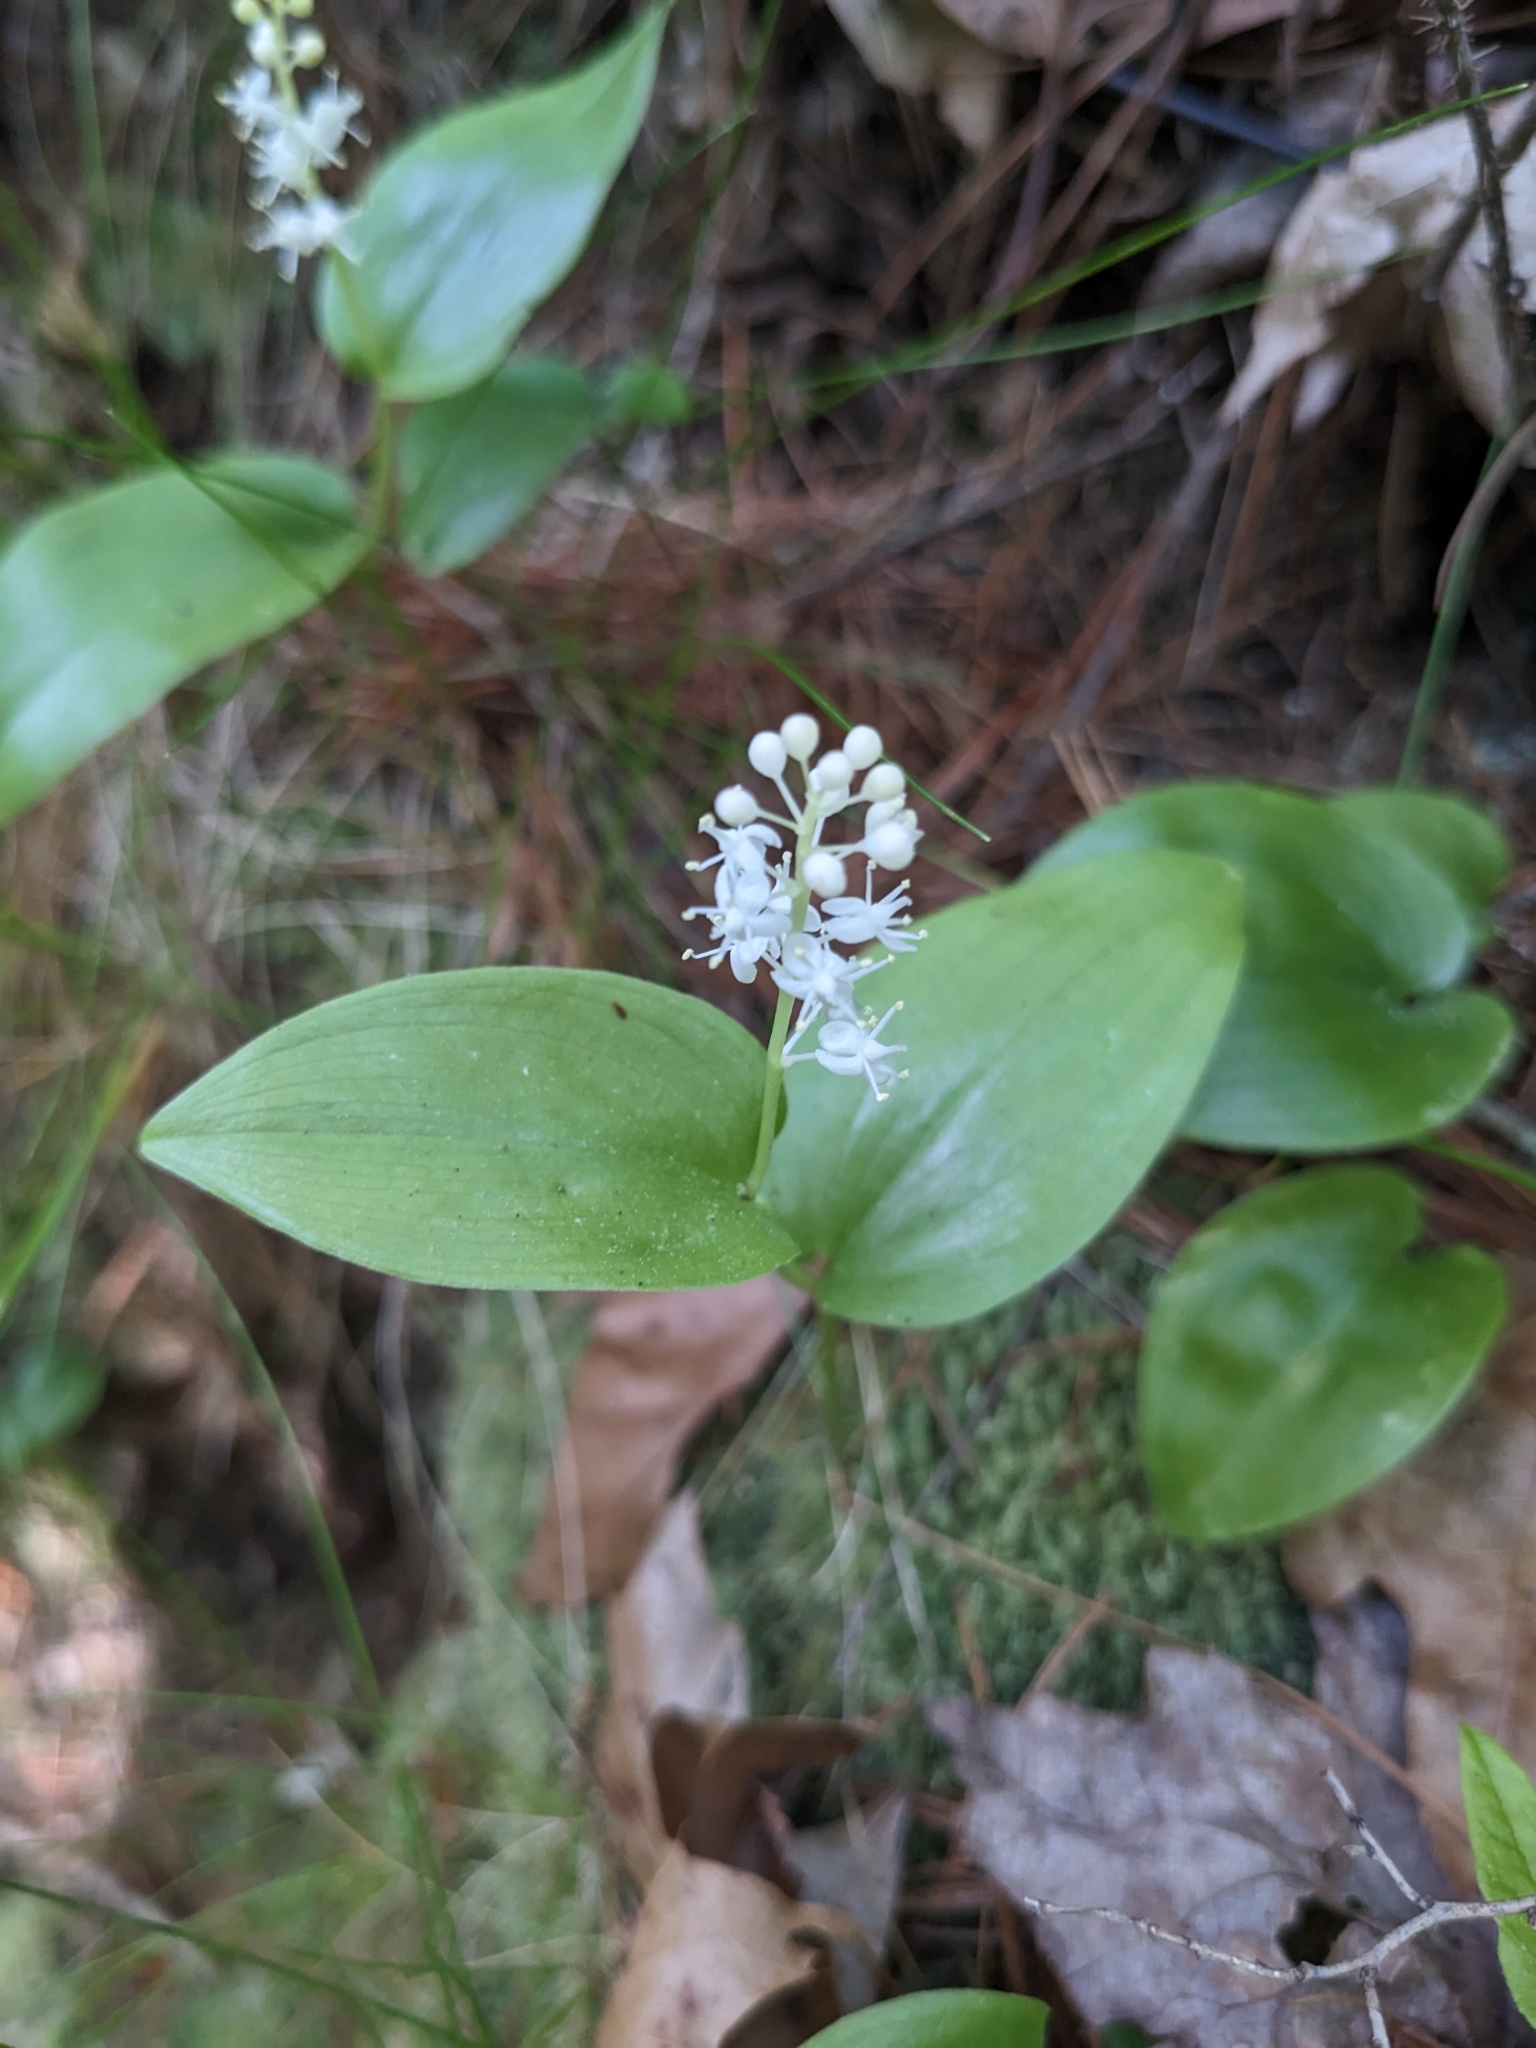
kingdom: Plantae
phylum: Tracheophyta
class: Liliopsida
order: Asparagales
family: Asparagaceae
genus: Maianthemum
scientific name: Maianthemum canadense
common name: False lily-of-the-valley
